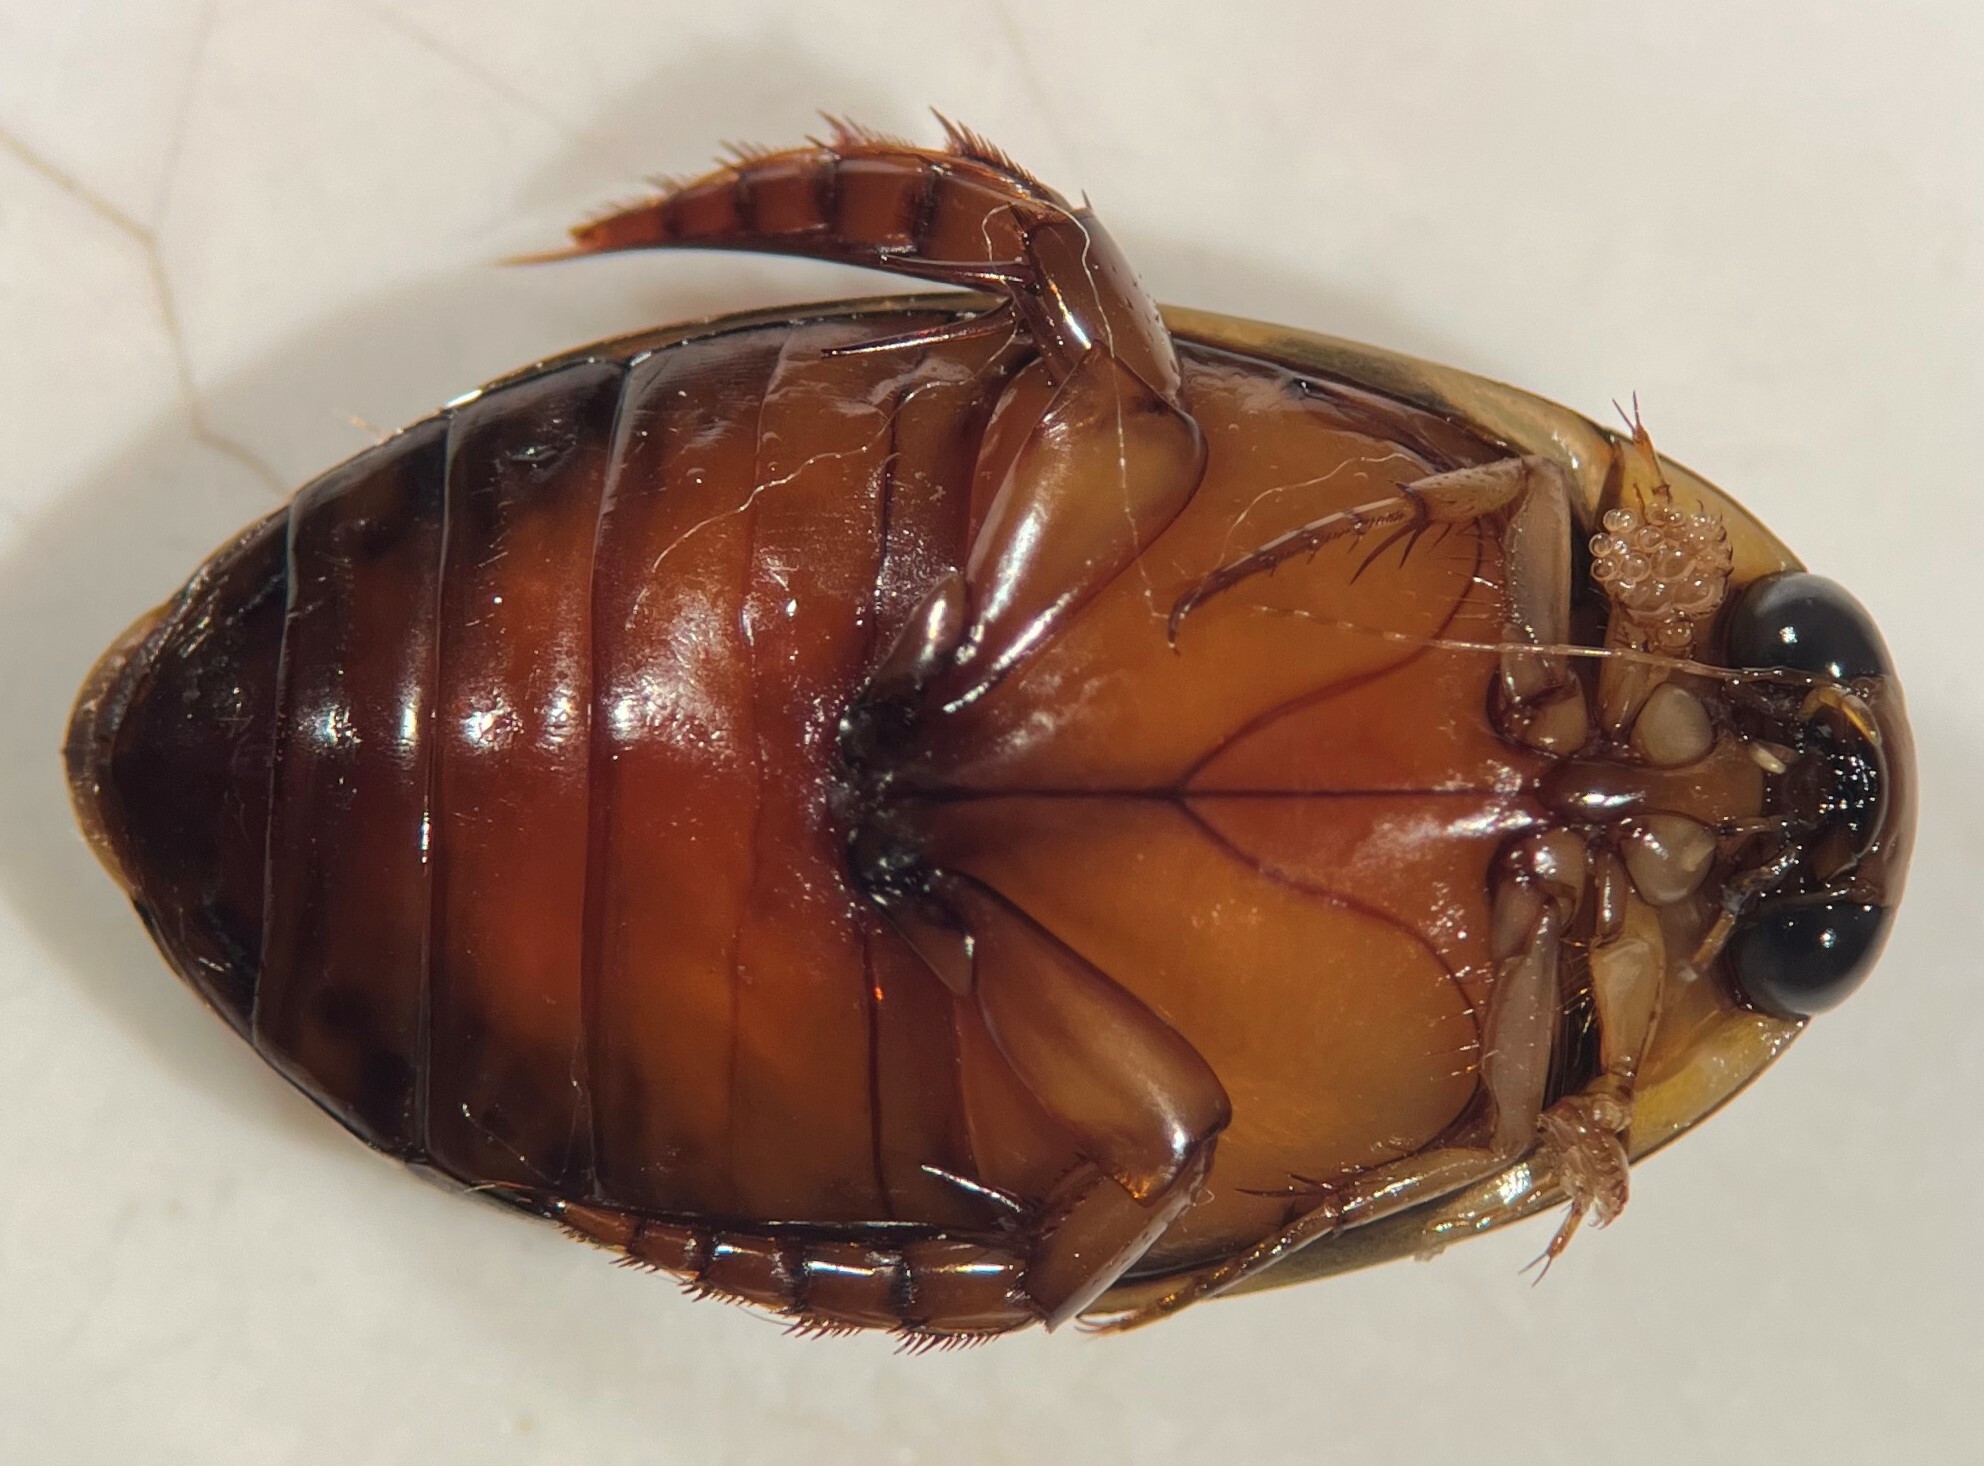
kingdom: Animalia
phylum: Arthropoda
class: Insecta
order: Coleoptera
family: Dytiscidae
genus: Thermonectus
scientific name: Thermonectus sibleyi
